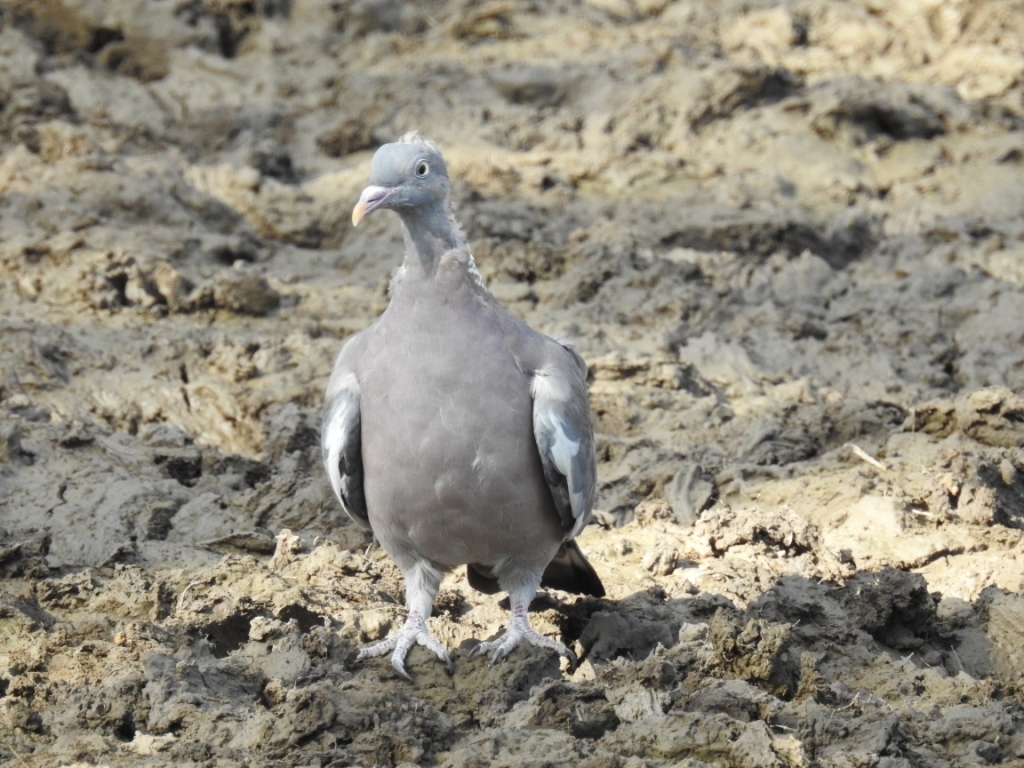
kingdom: Animalia
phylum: Chordata
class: Aves
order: Columbiformes
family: Columbidae
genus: Columba
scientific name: Columba palumbus
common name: Common wood pigeon
